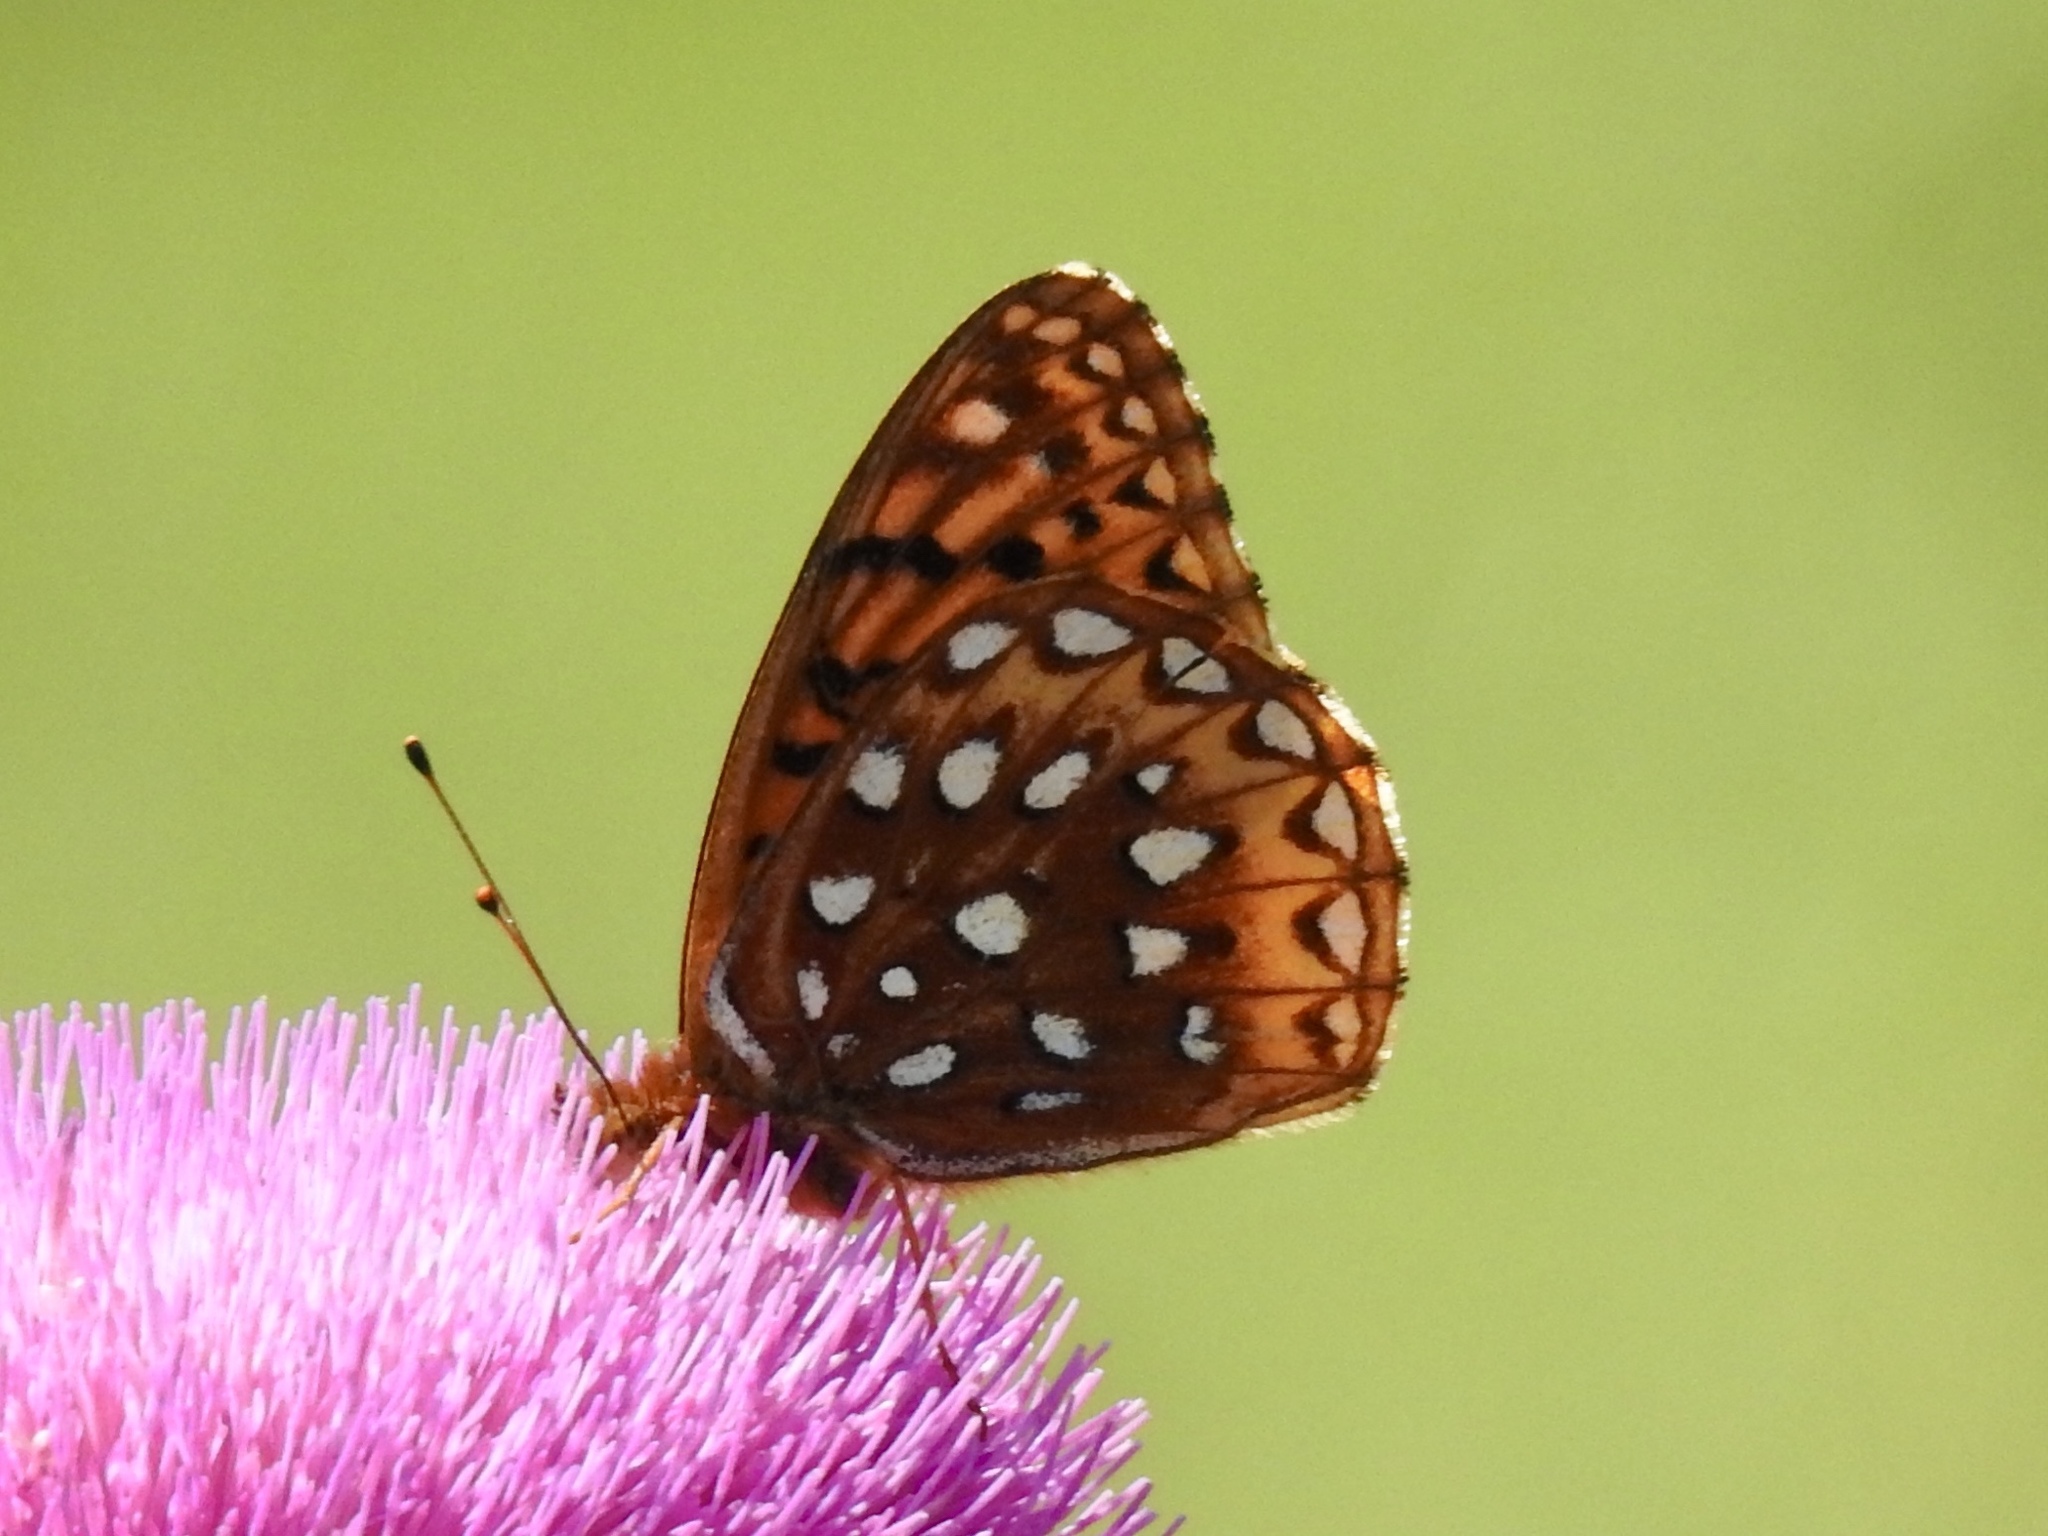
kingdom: Animalia
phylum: Arthropoda
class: Insecta
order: Lepidoptera
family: Nymphalidae
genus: Speyeria
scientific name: Speyeria atlantis
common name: Atlantis fritillary
